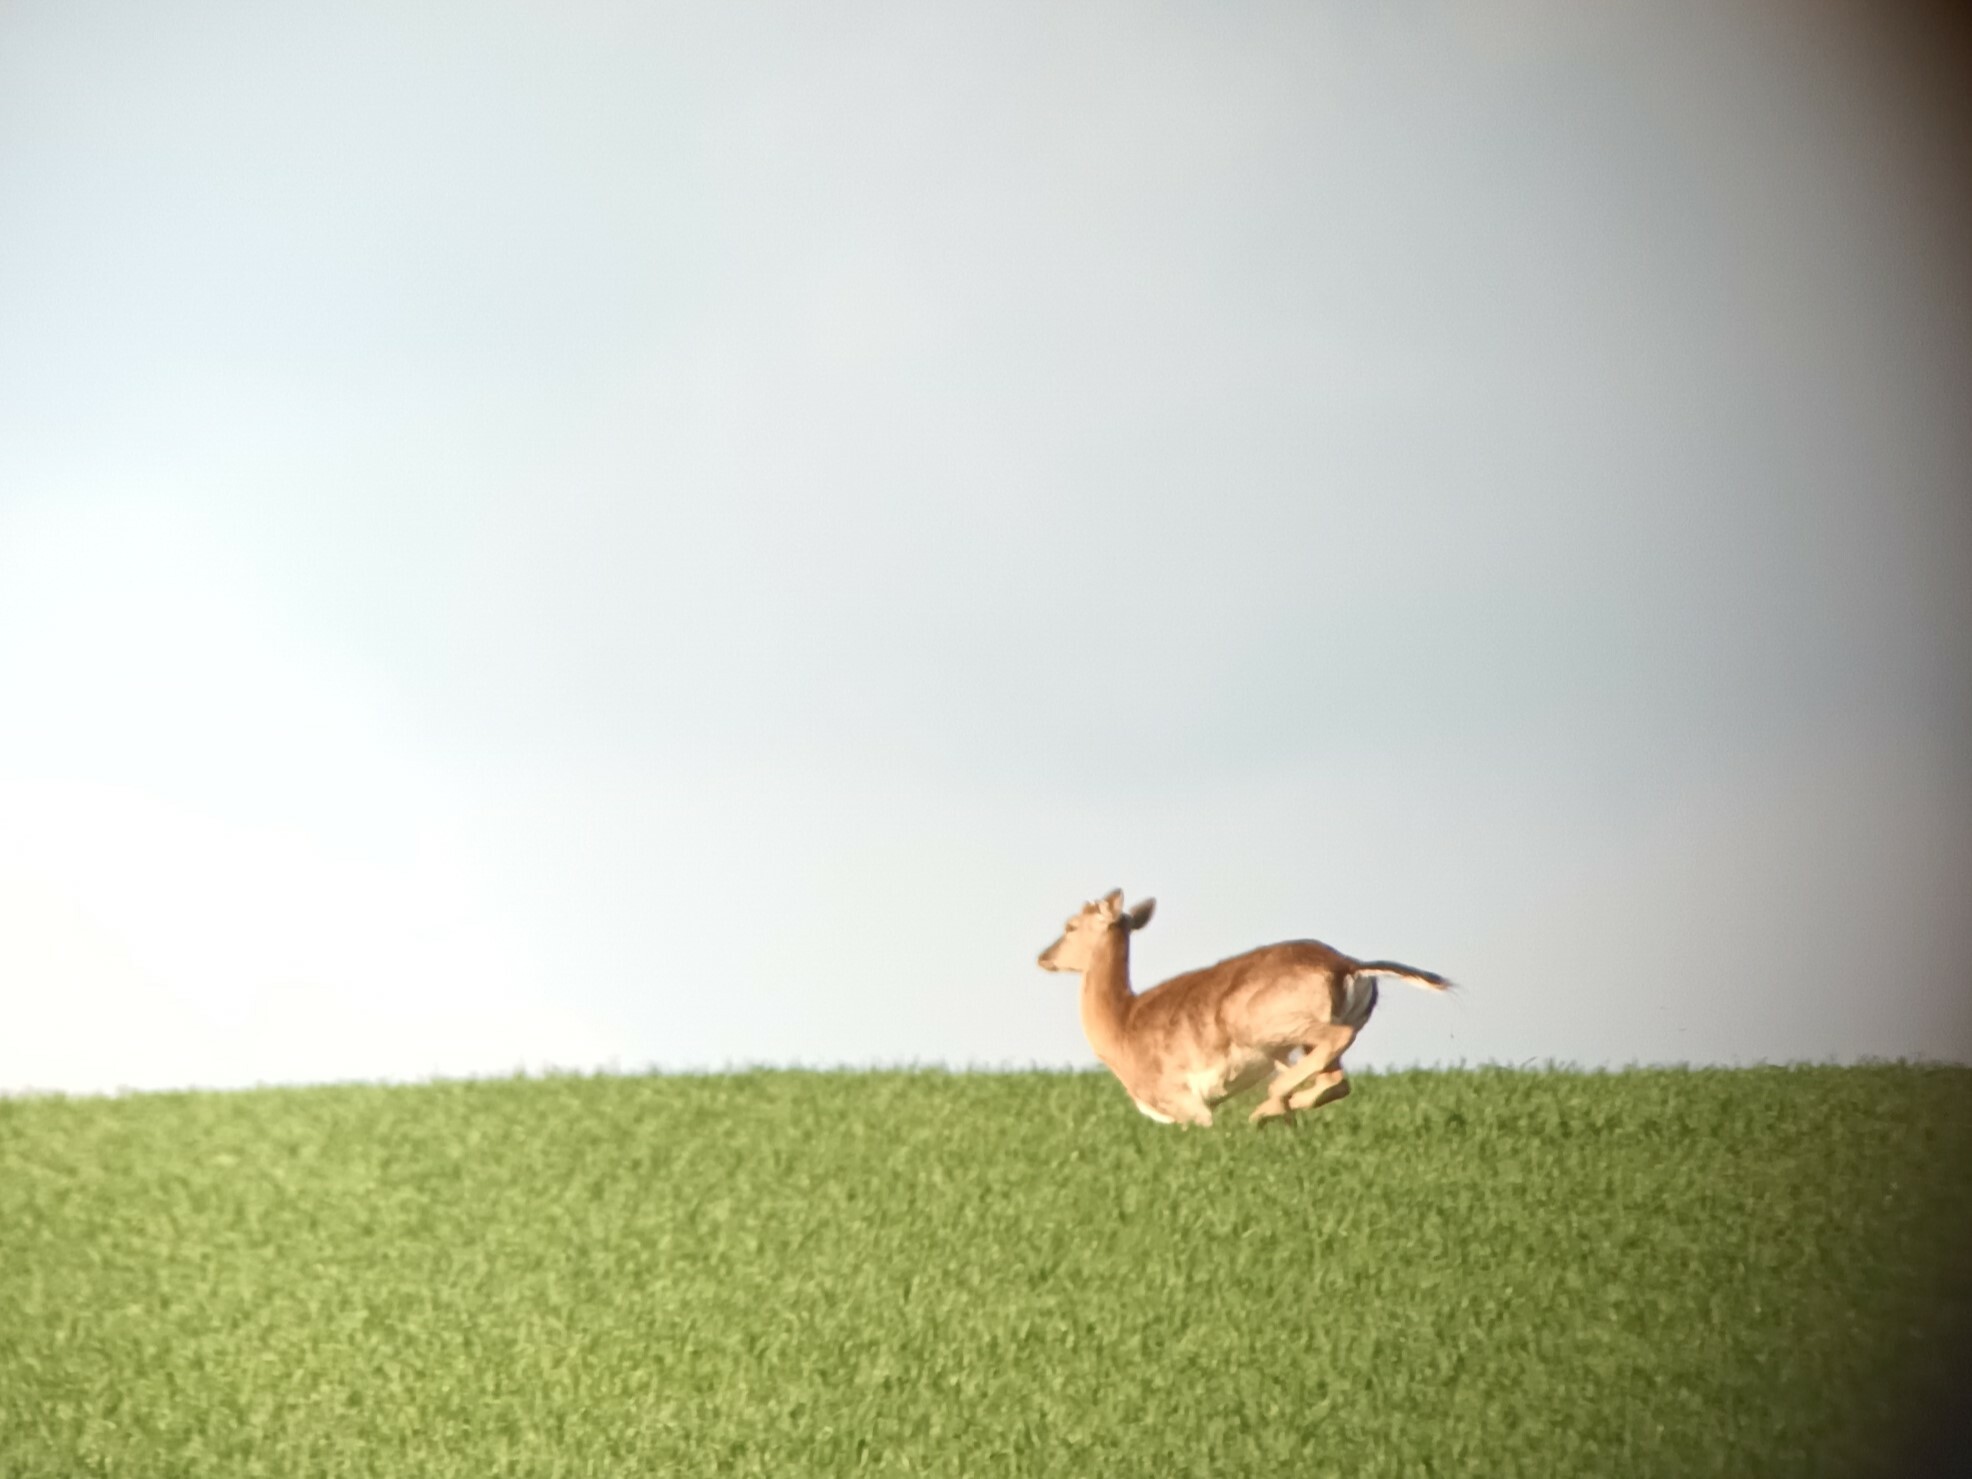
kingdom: Animalia
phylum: Chordata
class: Mammalia
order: Artiodactyla
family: Cervidae
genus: Dama
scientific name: Dama dama
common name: Fallow deer
